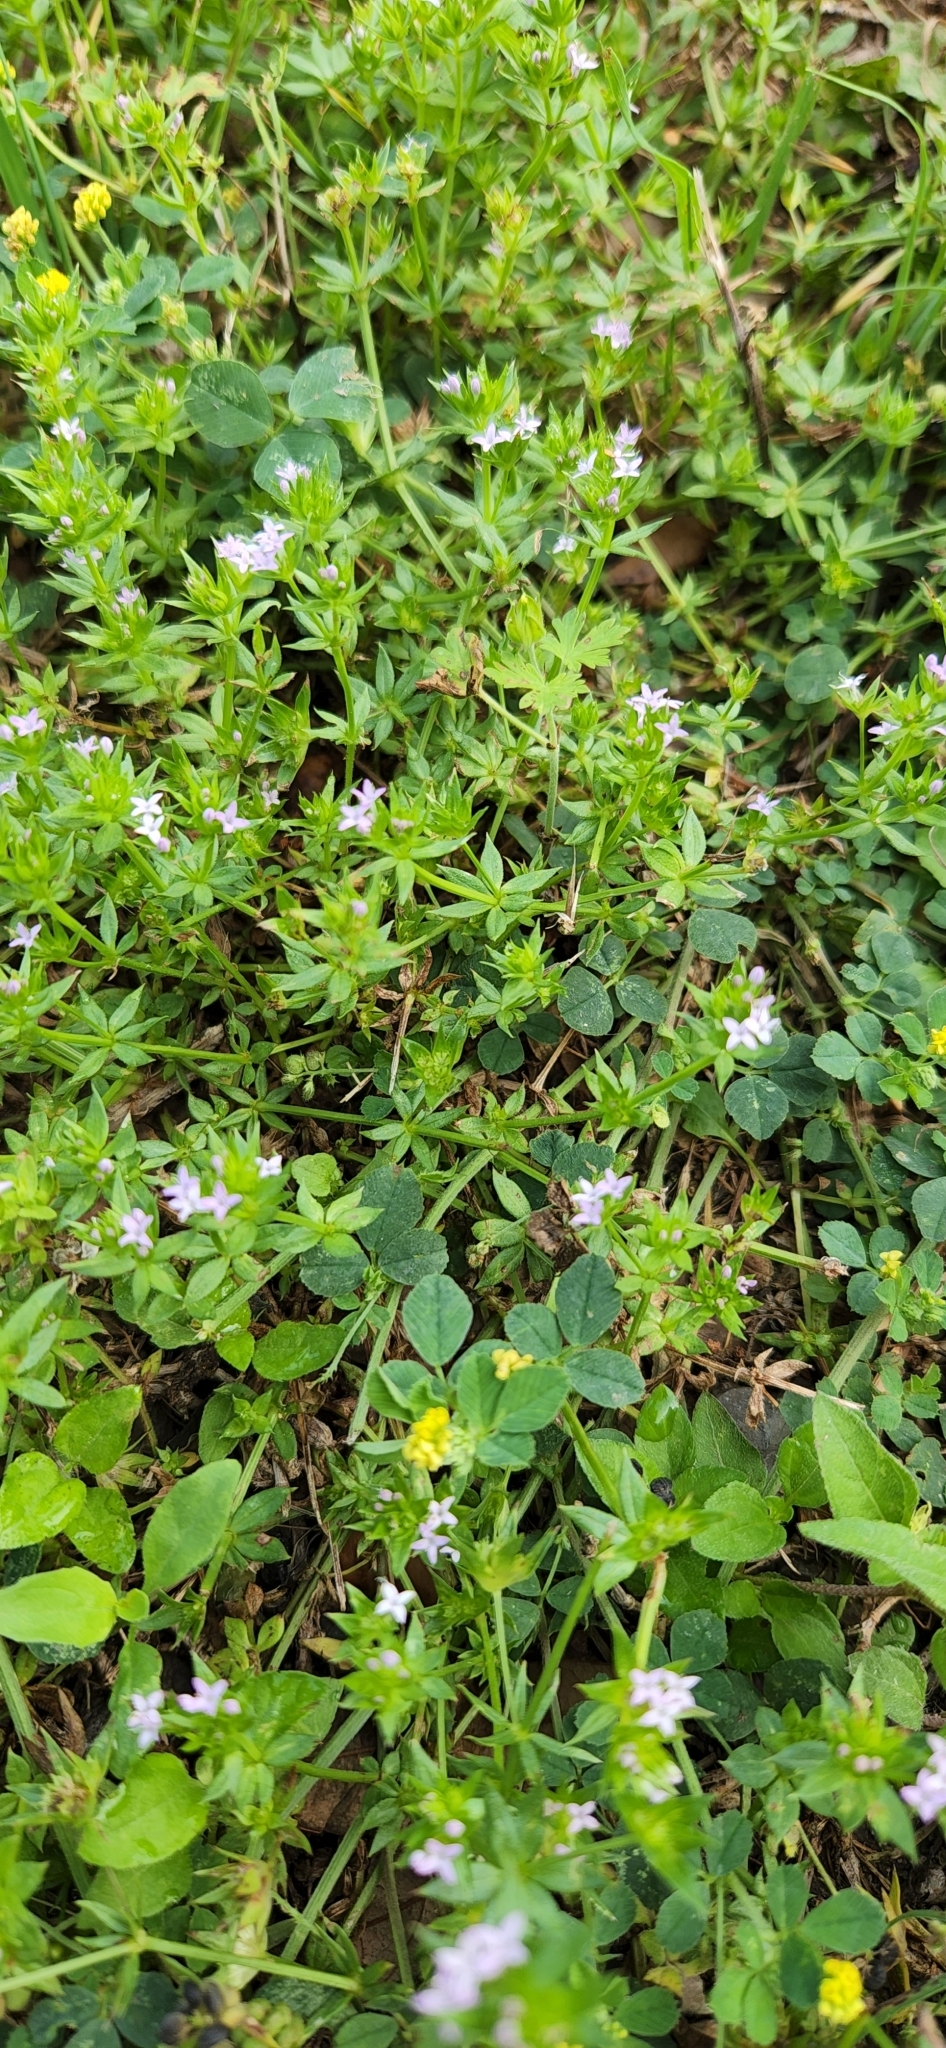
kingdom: Plantae
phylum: Tracheophyta
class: Magnoliopsida
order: Gentianales
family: Rubiaceae
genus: Sherardia
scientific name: Sherardia arvensis
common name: Field madder
